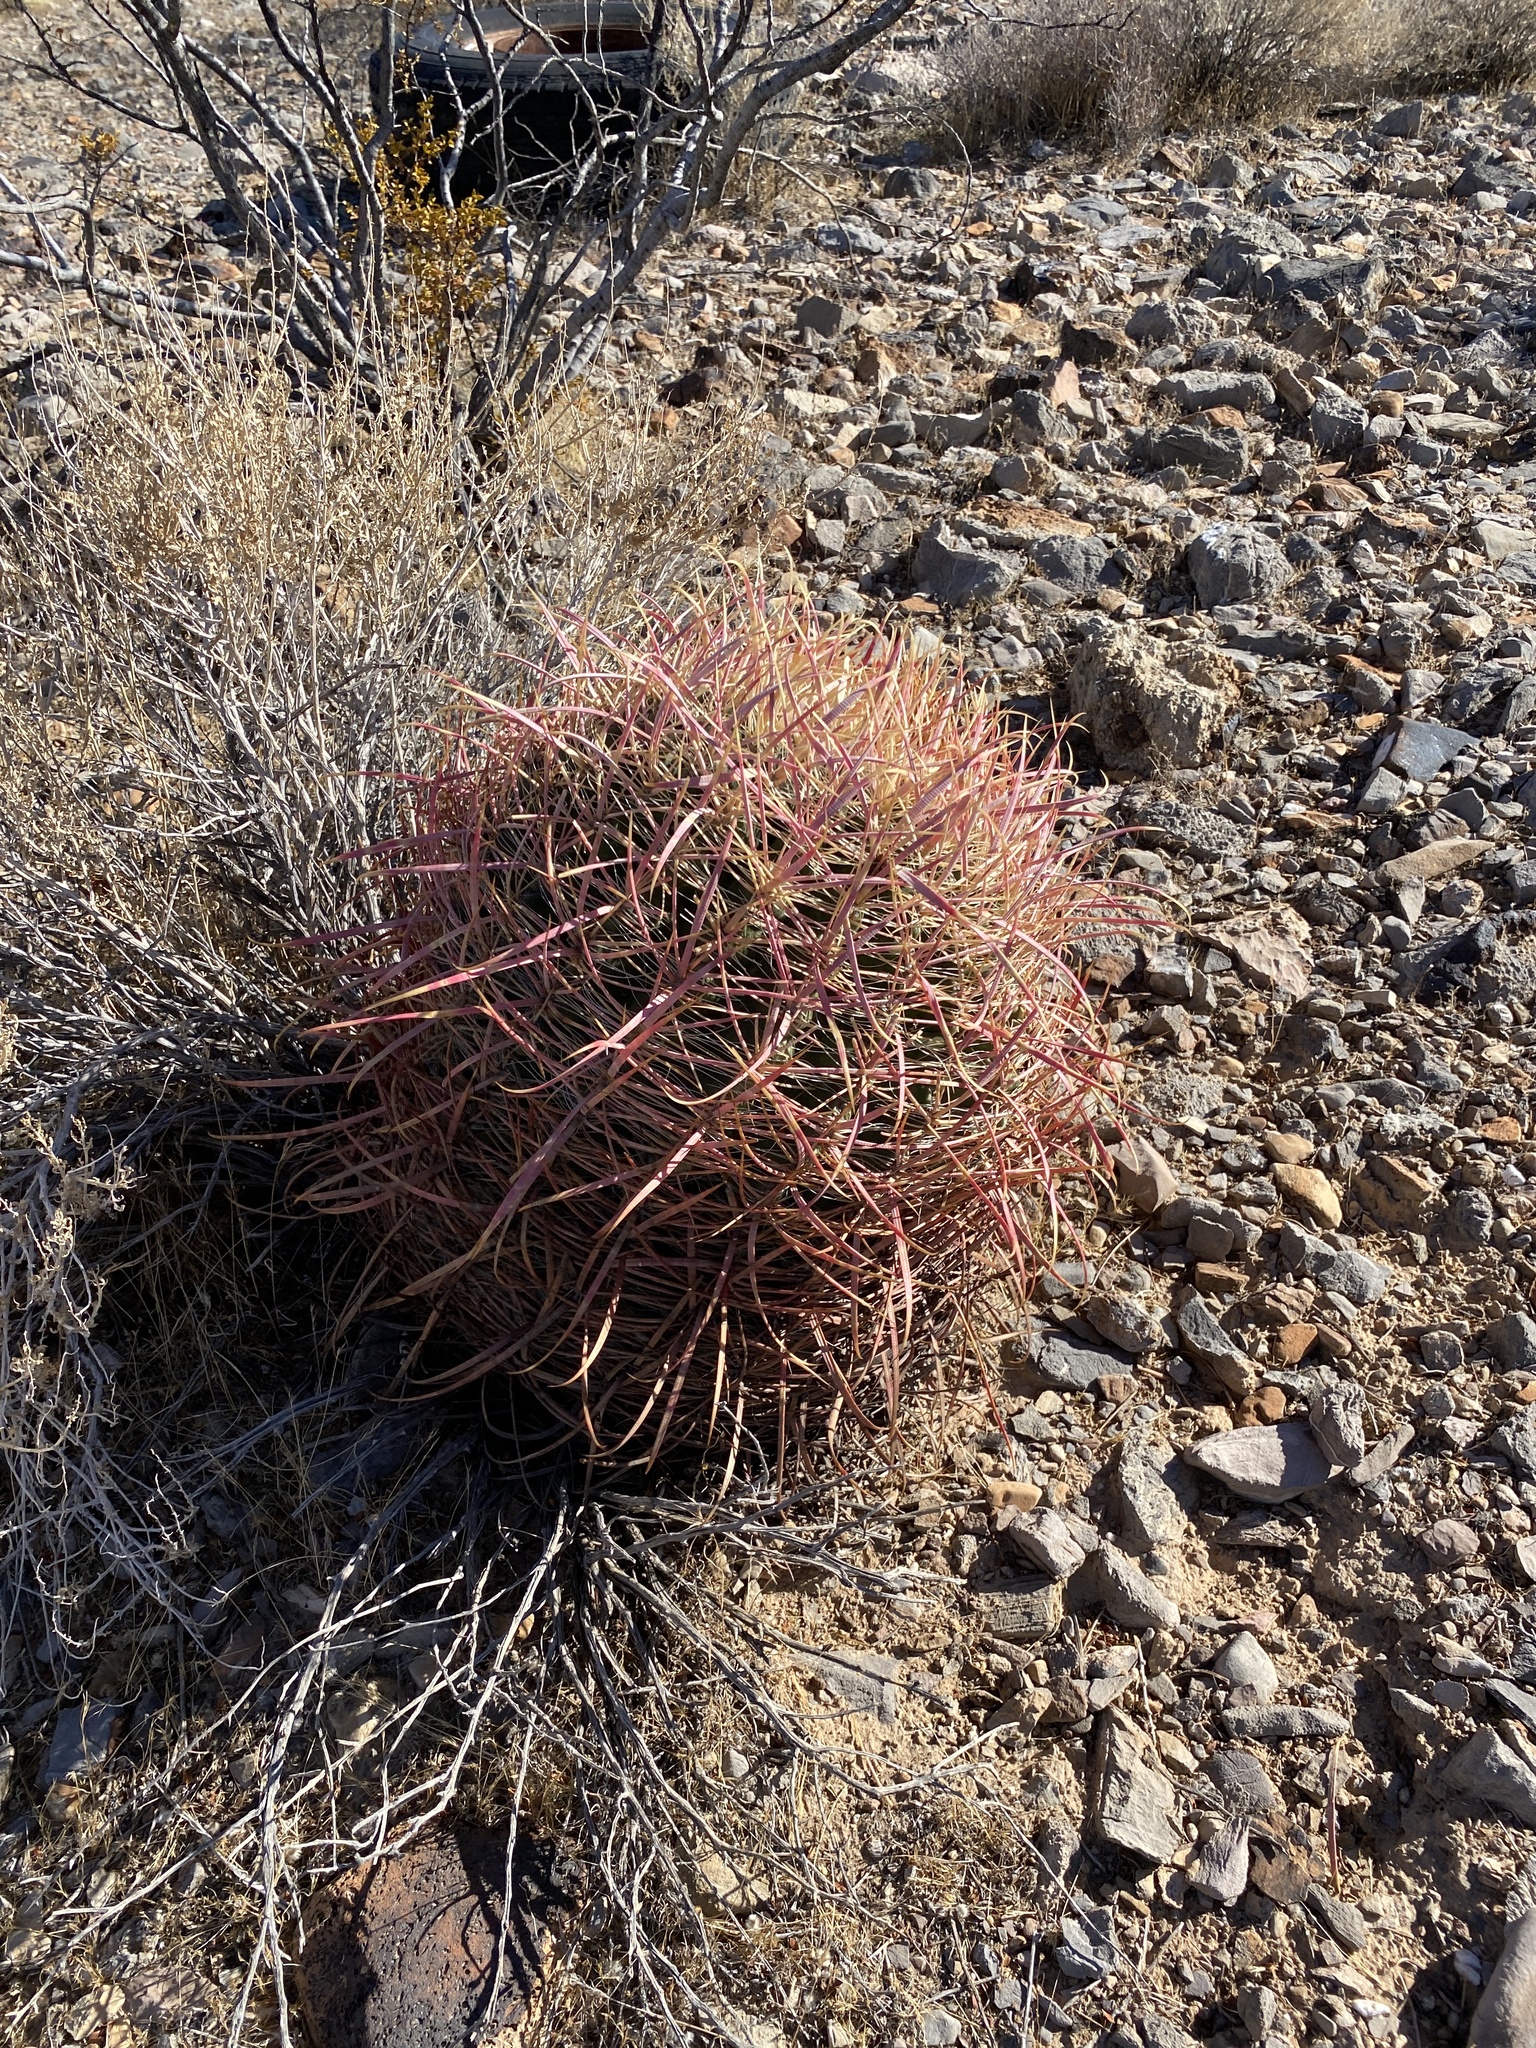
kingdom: Plantae
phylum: Tracheophyta
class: Magnoliopsida
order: Caryophyllales
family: Cactaceae
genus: Ferocactus
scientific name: Ferocactus cylindraceus
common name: California barrel cactus
